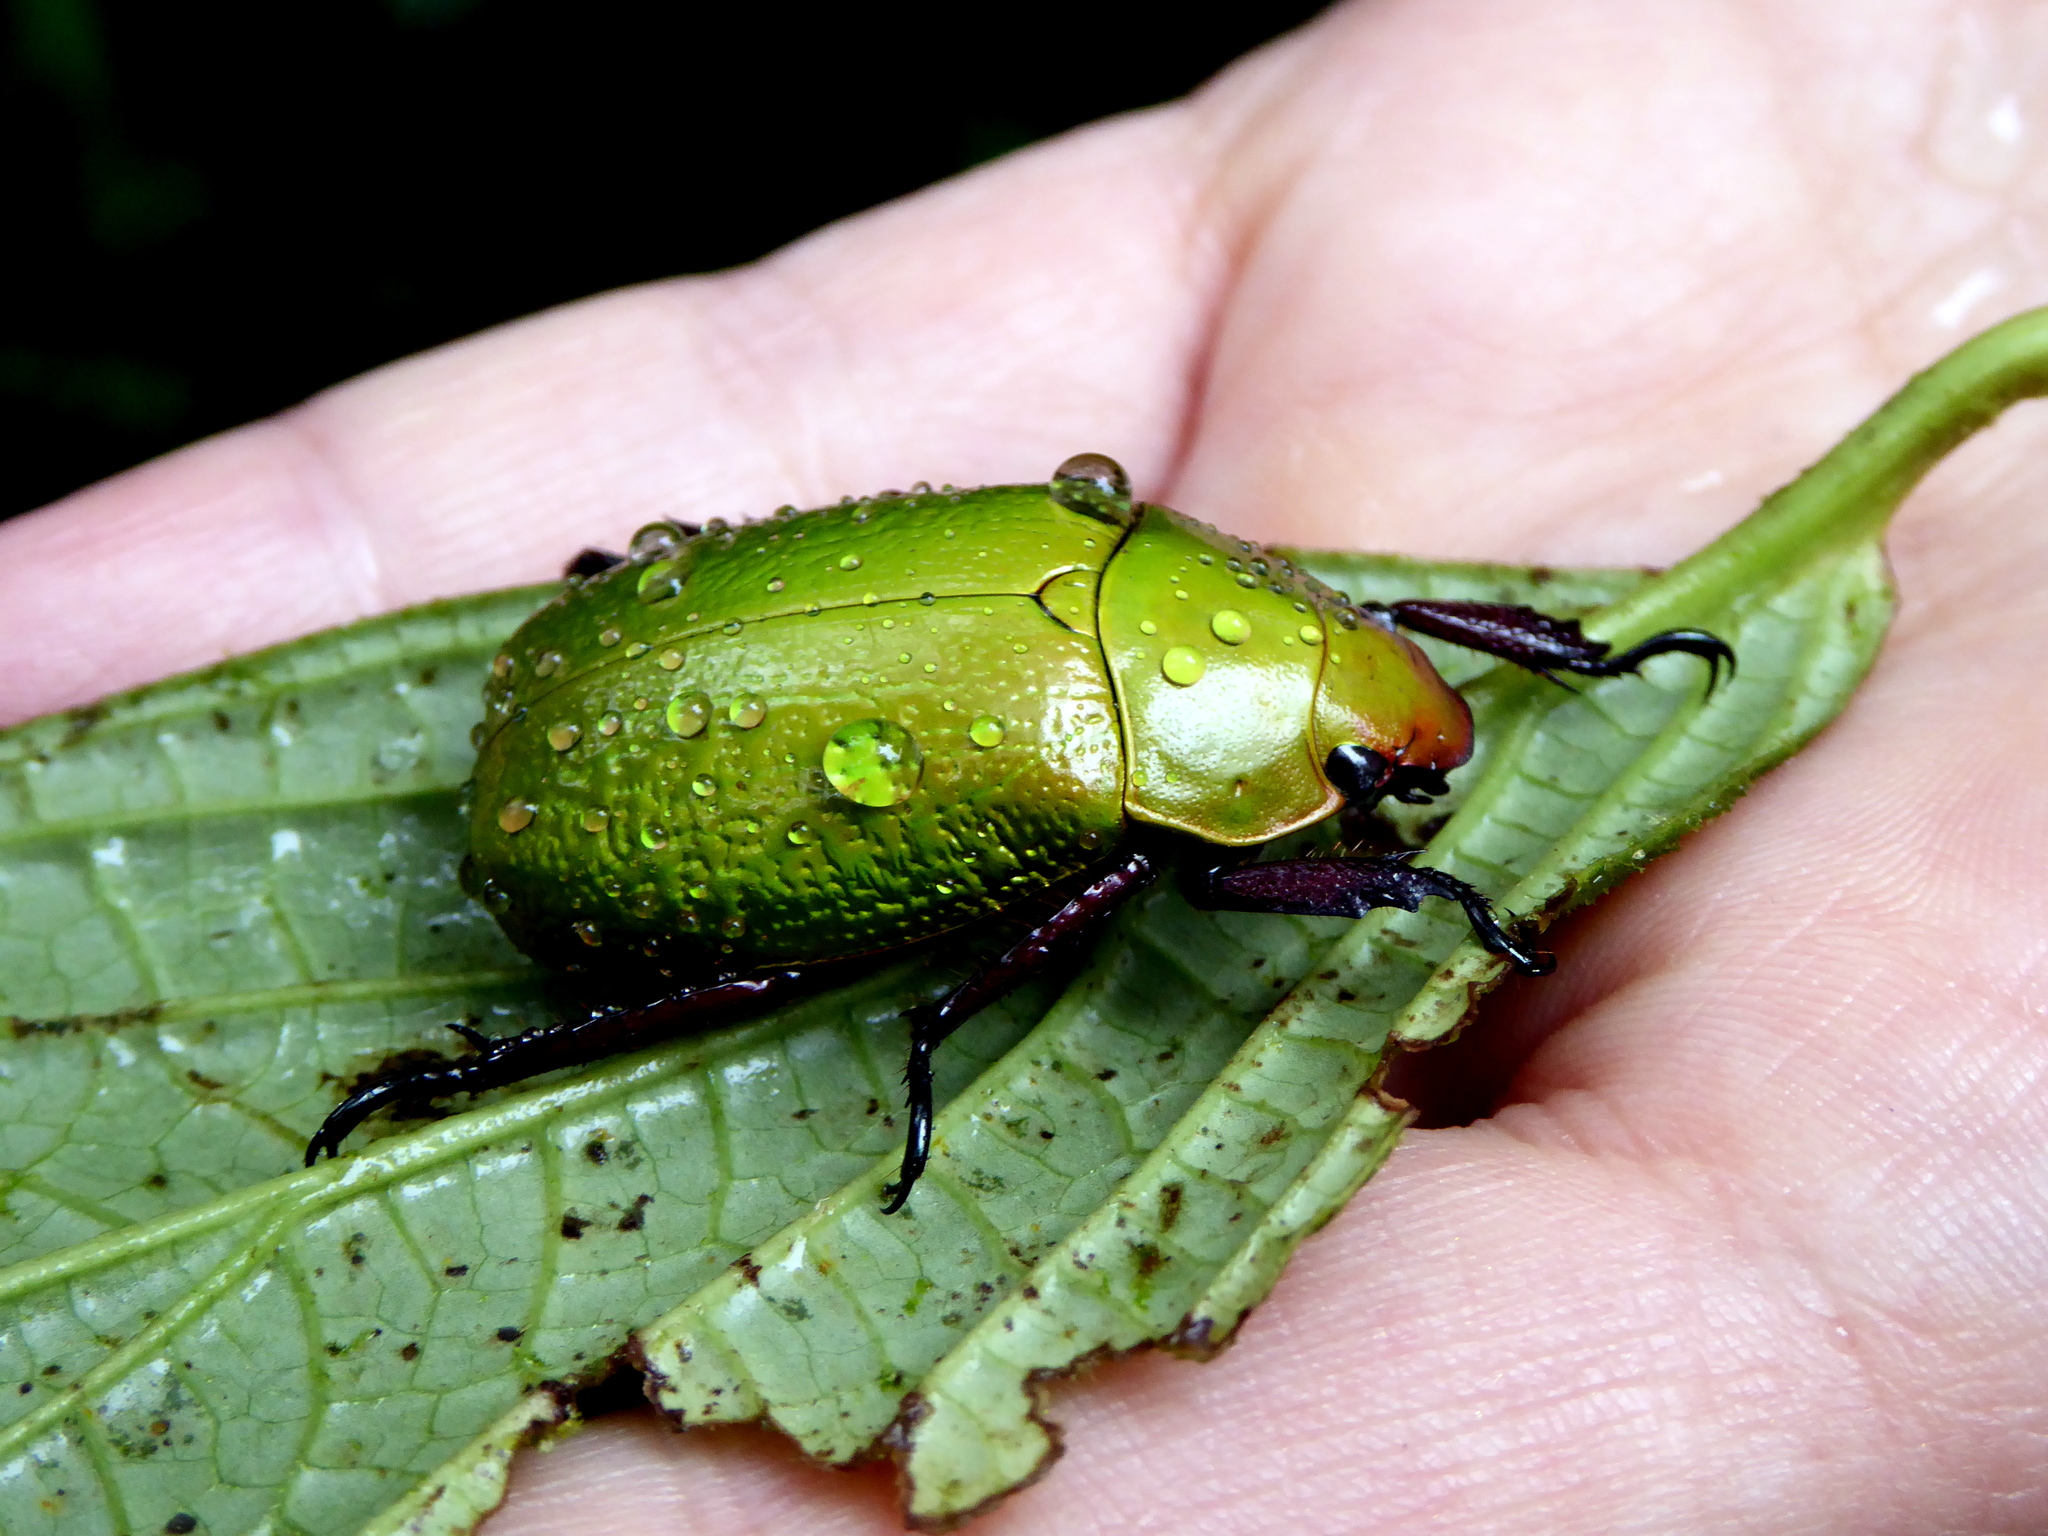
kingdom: Animalia
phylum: Arthropoda
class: Insecta
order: Coleoptera
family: Scarabaeidae
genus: Chrysina
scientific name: Chrysina boucardi
